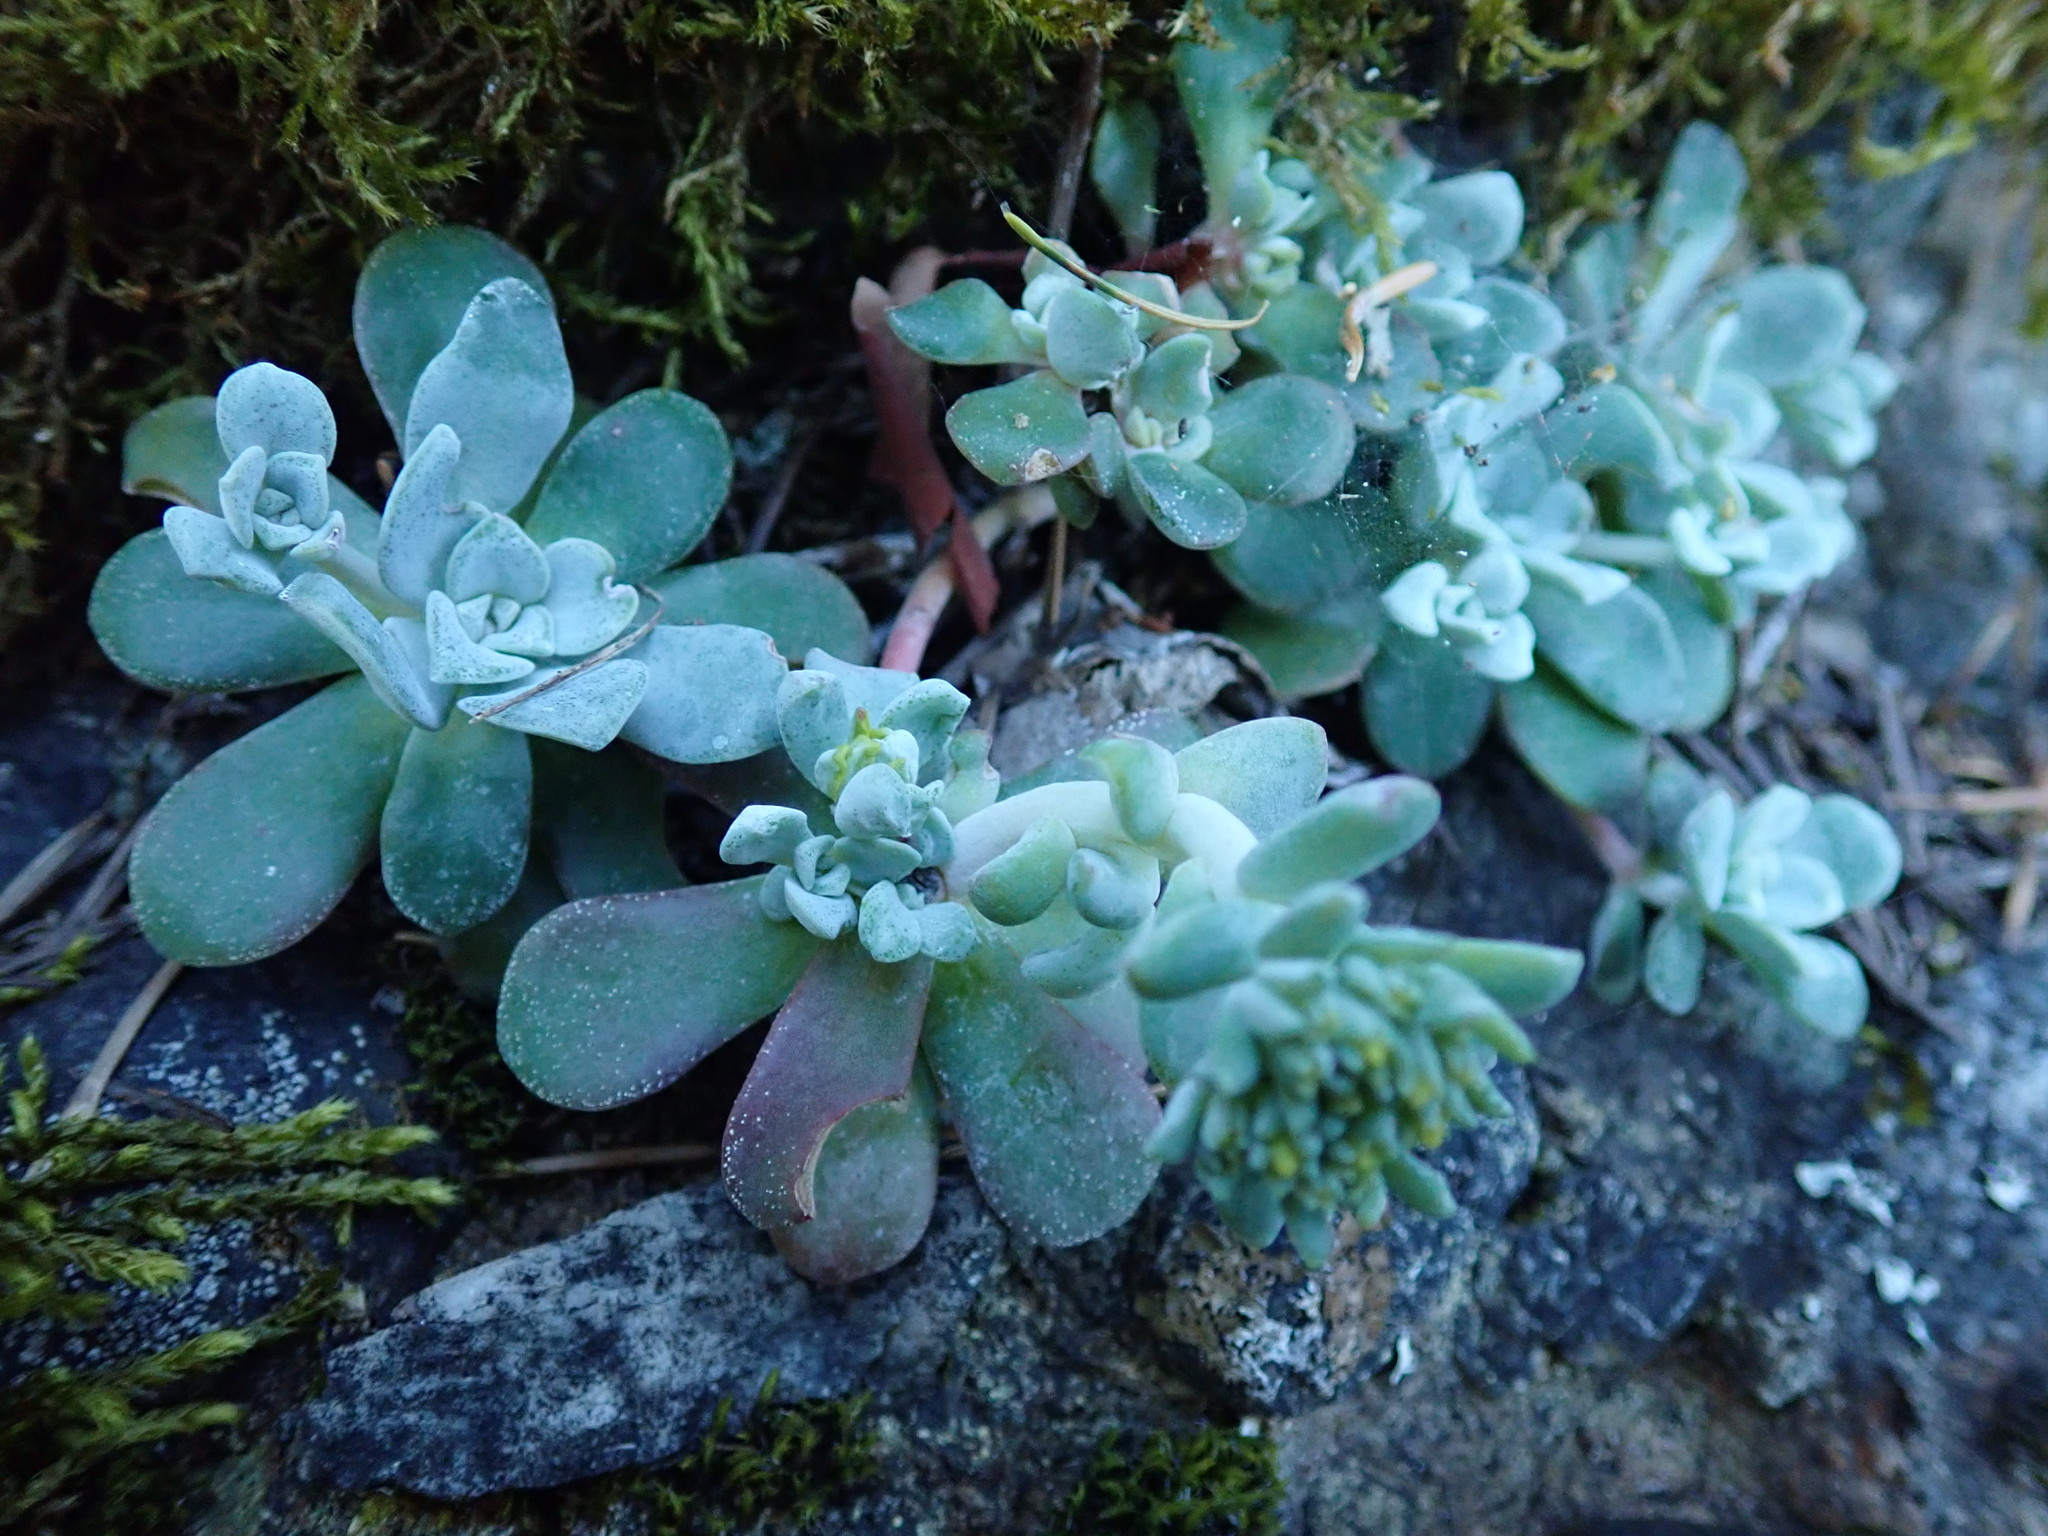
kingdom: Plantae
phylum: Tracheophyta
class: Magnoliopsida
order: Saxifragales
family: Crassulaceae
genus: Sedum
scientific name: Sedum spathulifolium
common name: Colorado stonecrop
